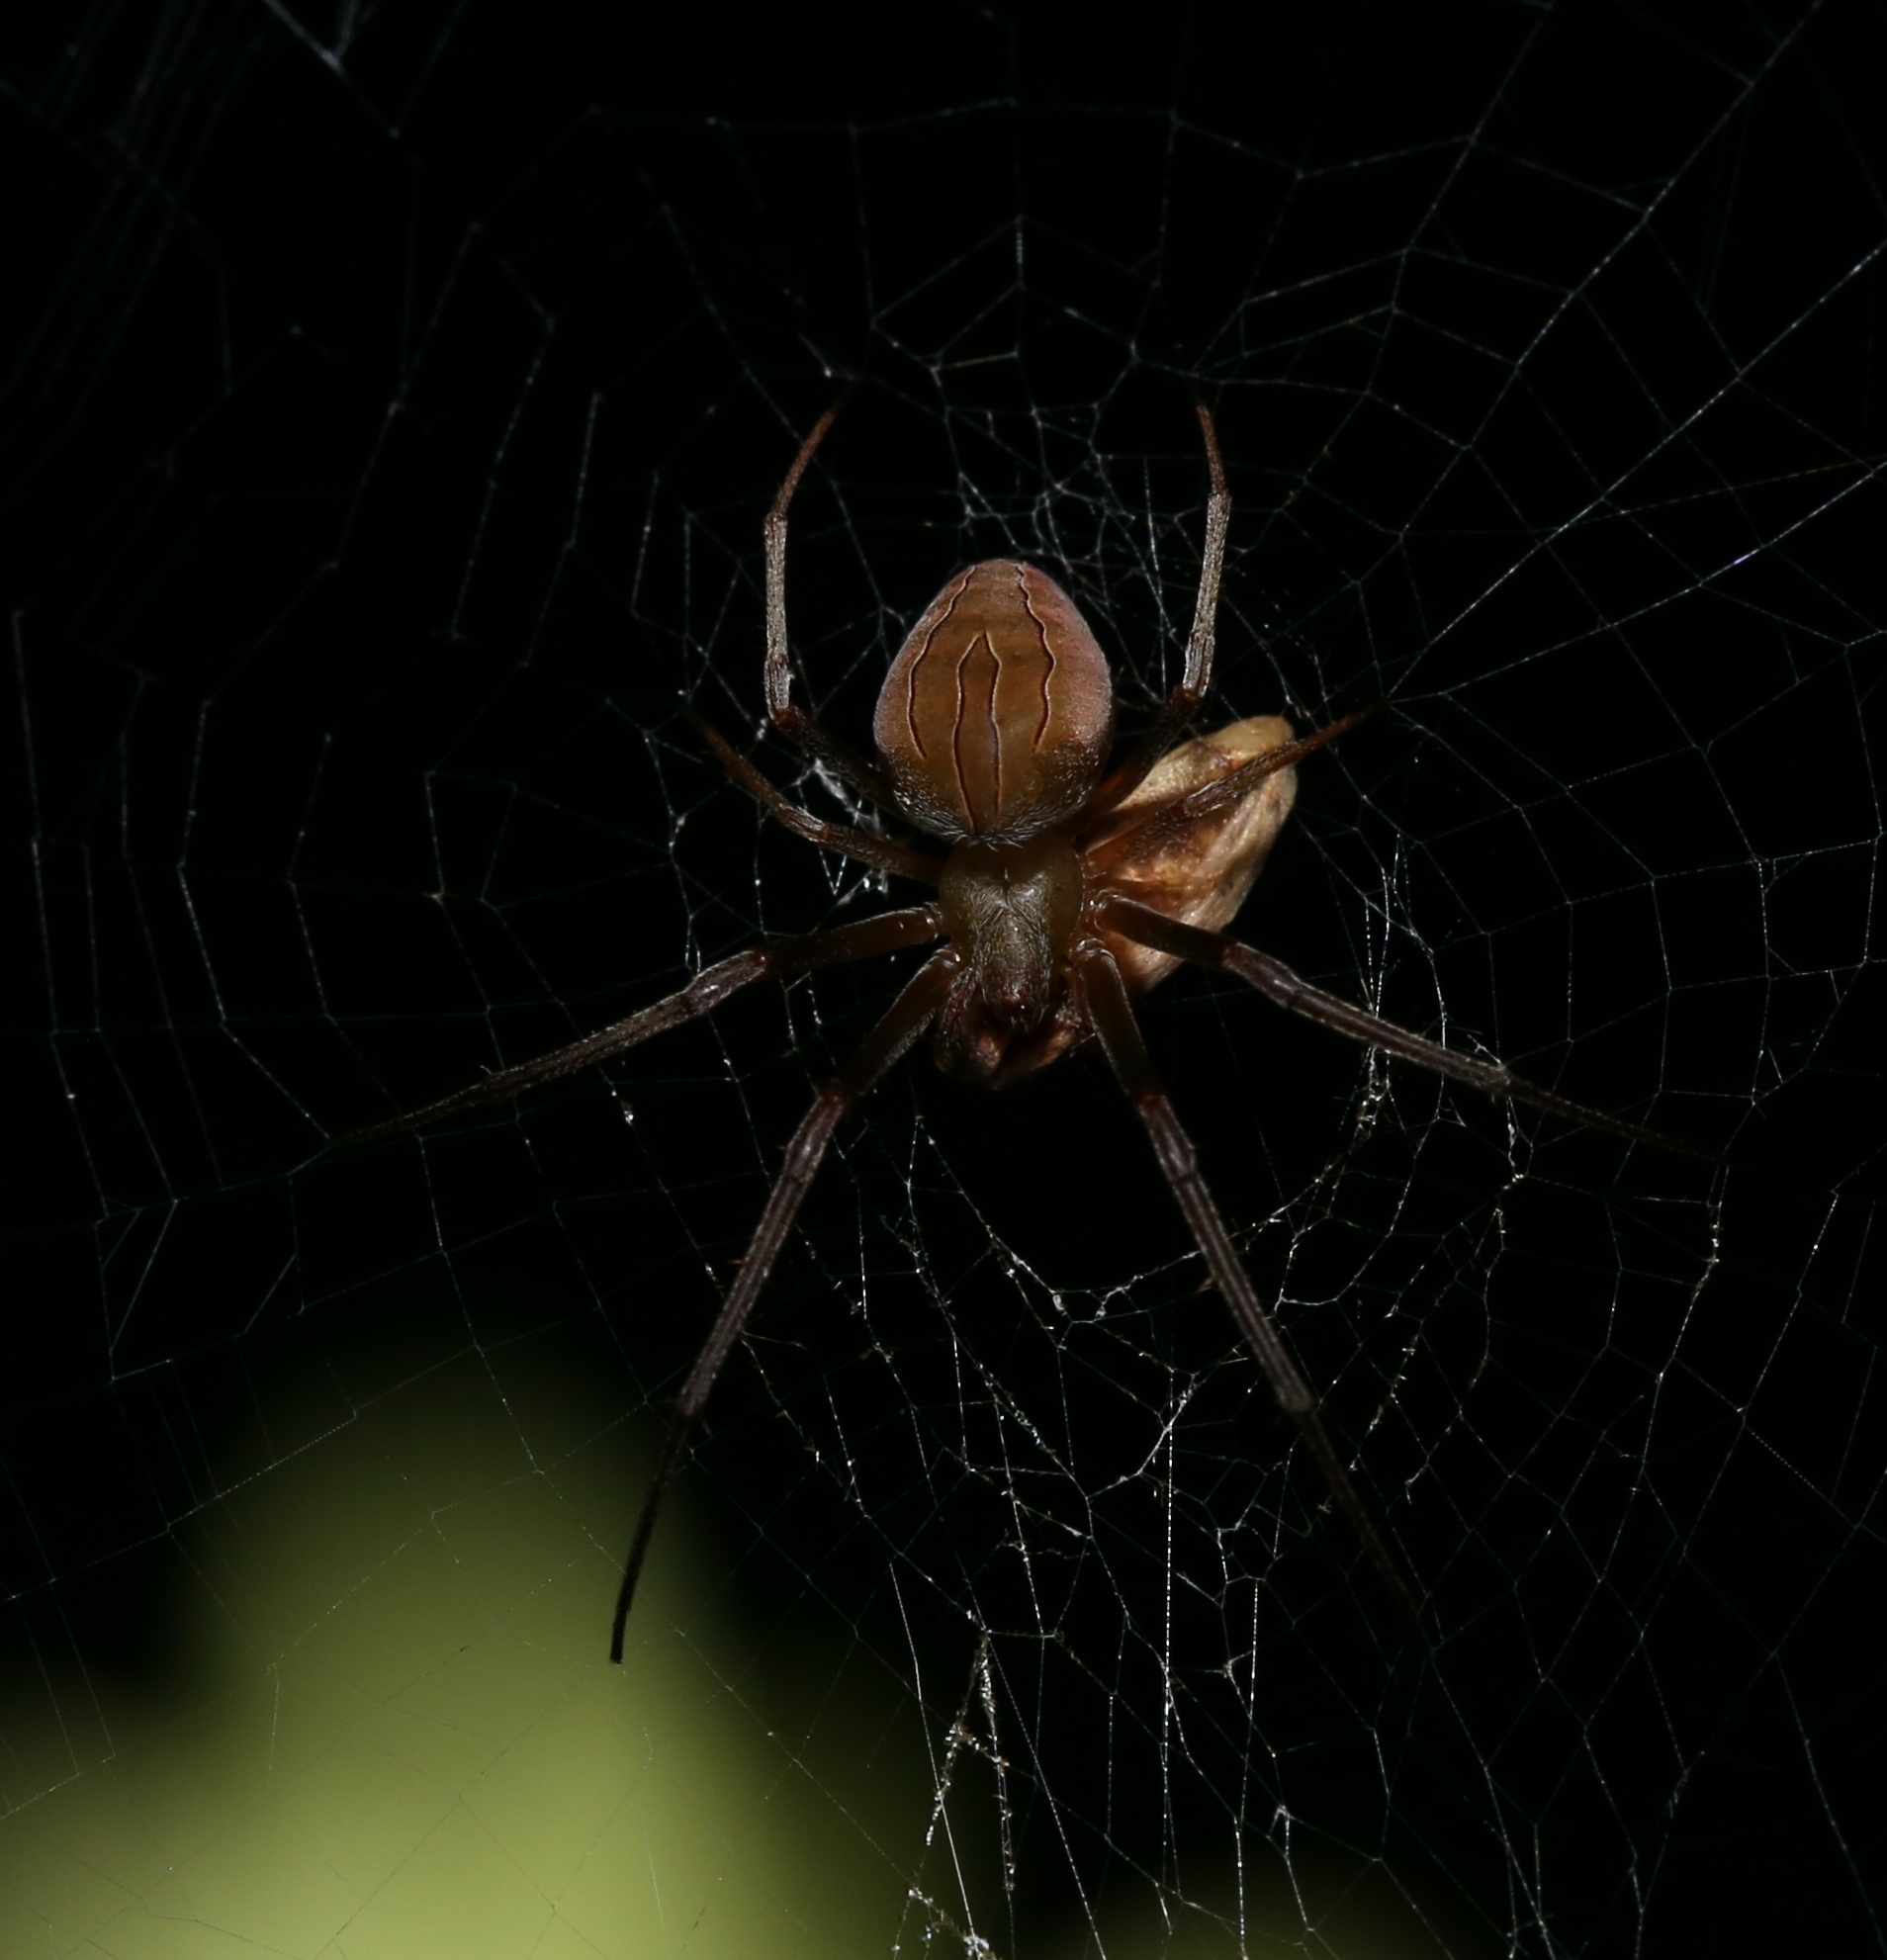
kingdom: Animalia
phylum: Arthropoda
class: Arachnida
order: Araneae
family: Araneidae
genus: Acacesia
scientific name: Acacesia hamata
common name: Orb weavers
